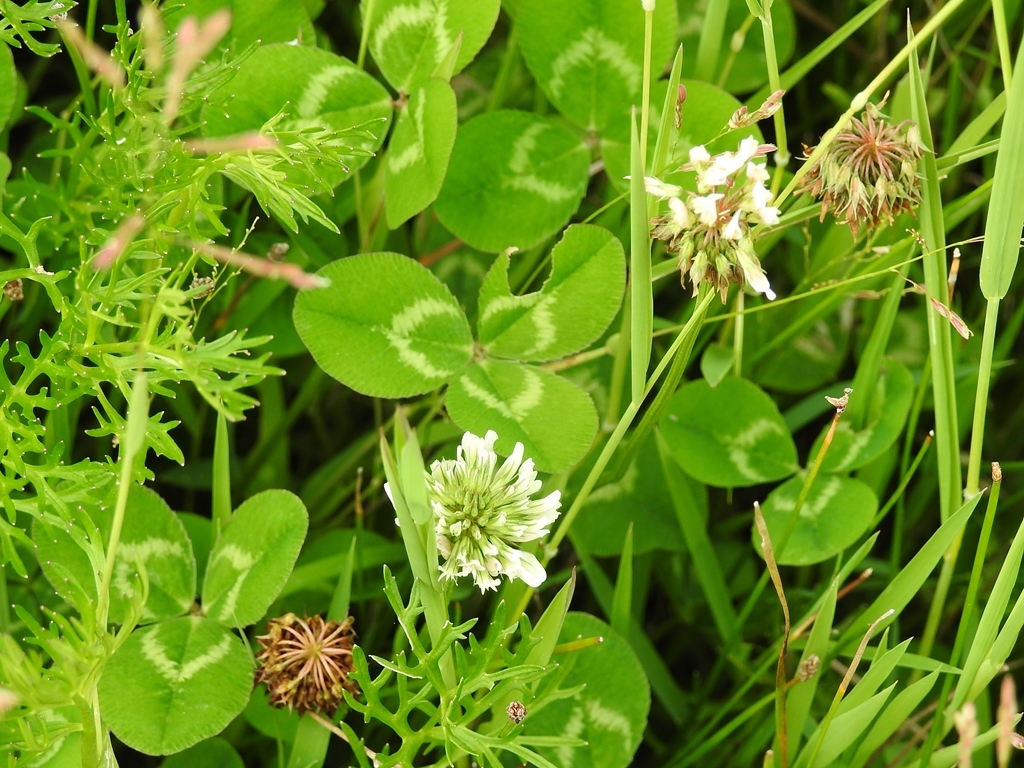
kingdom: Plantae
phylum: Tracheophyta
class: Magnoliopsida
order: Fabales
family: Fabaceae
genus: Trifolium
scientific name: Trifolium repens
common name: White clover
